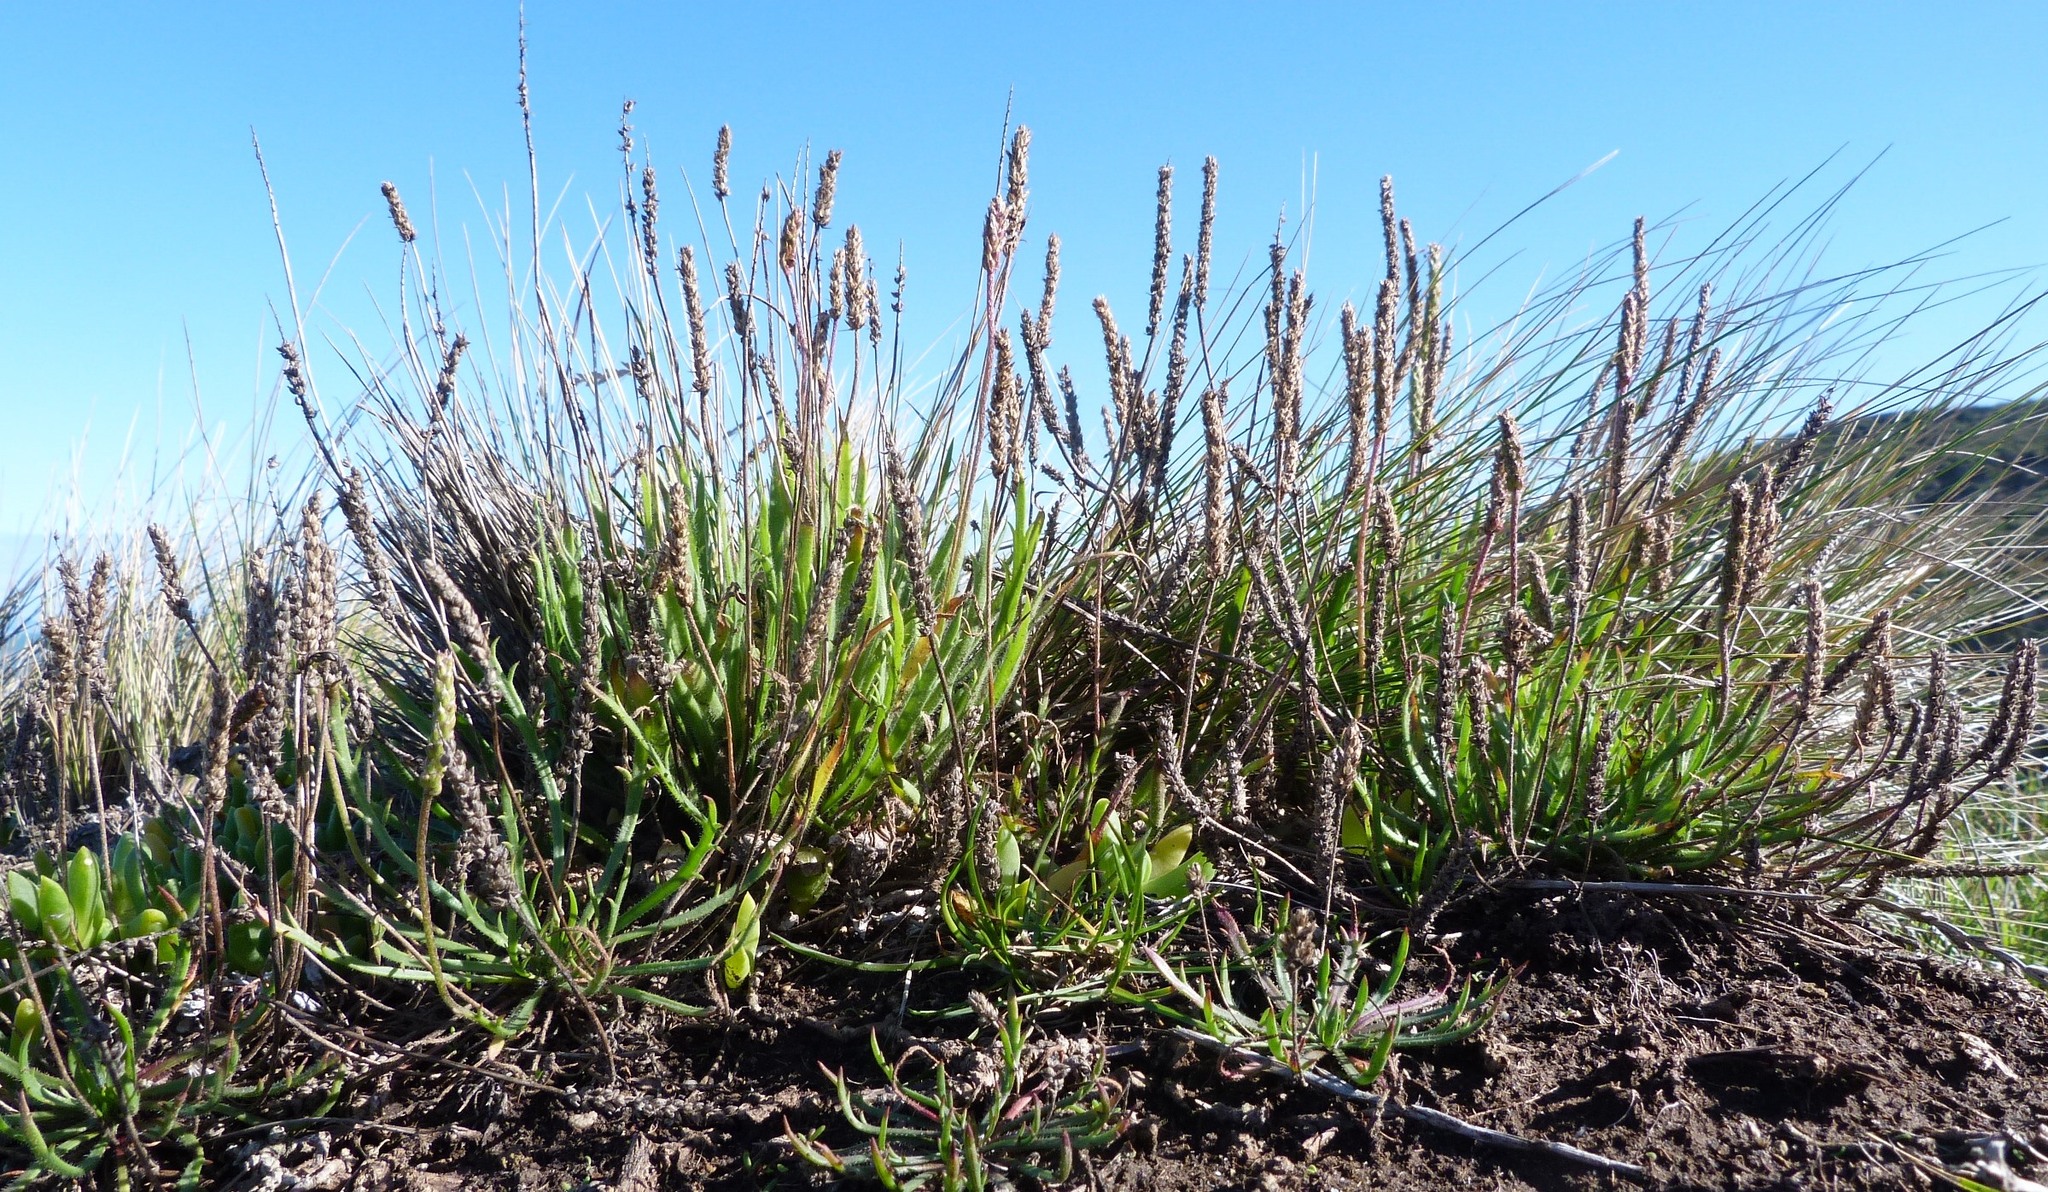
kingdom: Plantae
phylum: Tracheophyta
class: Magnoliopsida
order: Lamiales
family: Plantaginaceae
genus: Plantago
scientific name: Plantago coronopus
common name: Buck's-horn plantain
